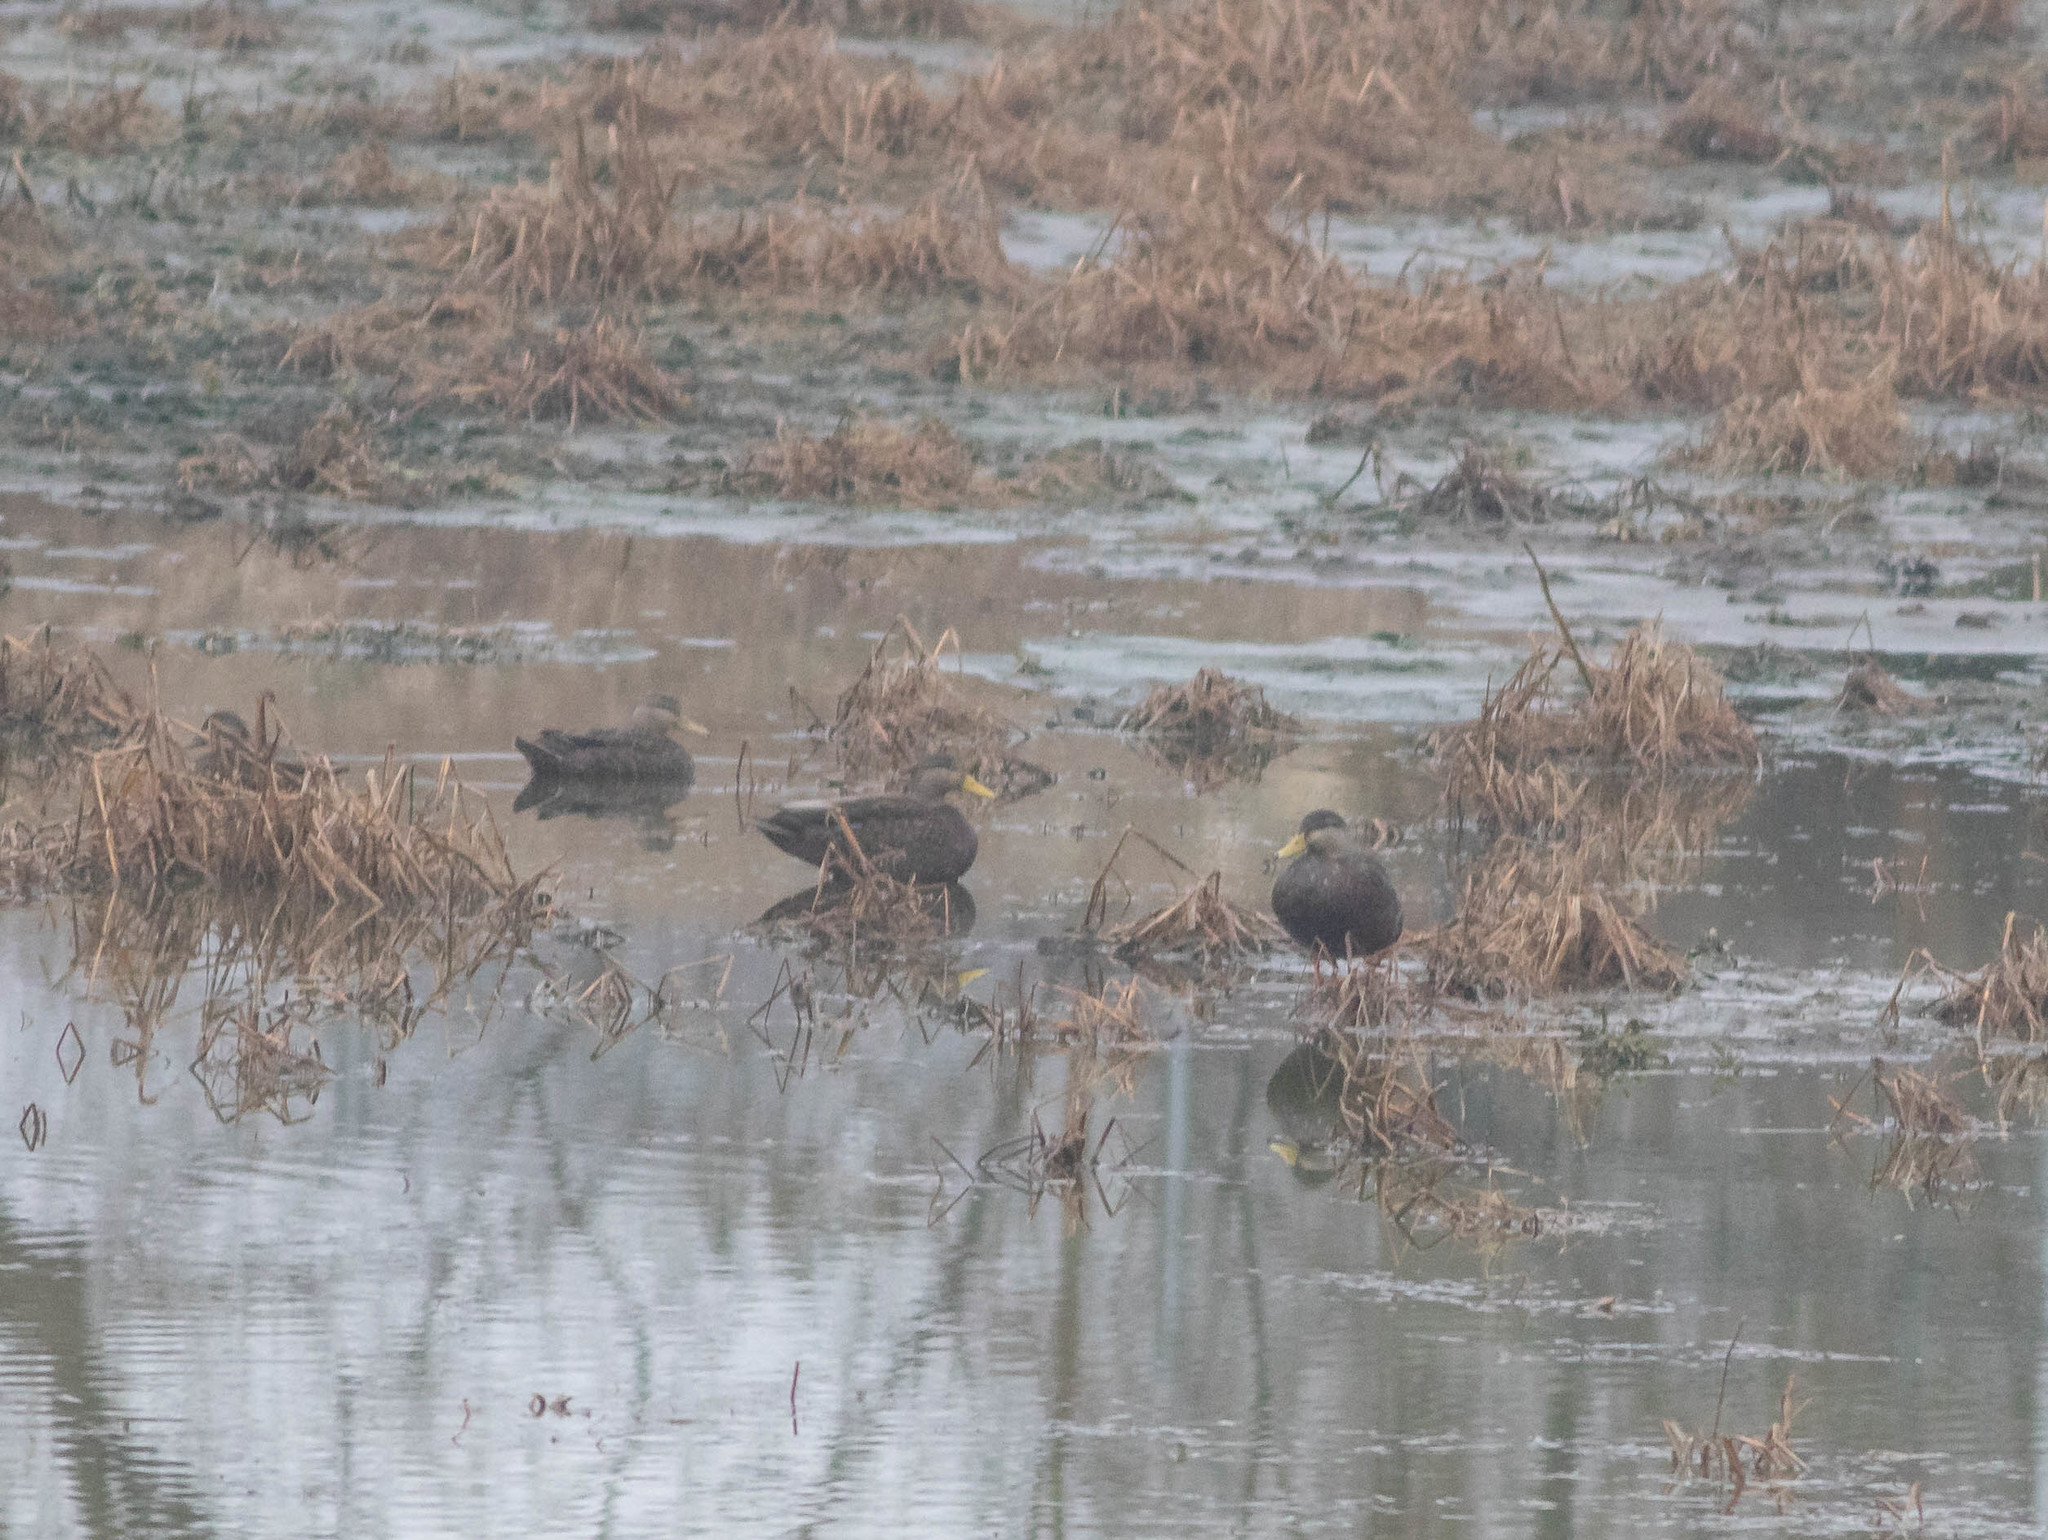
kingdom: Animalia
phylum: Chordata
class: Aves
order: Anseriformes
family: Anatidae
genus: Anas
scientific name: Anas rubripes
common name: American black duck
